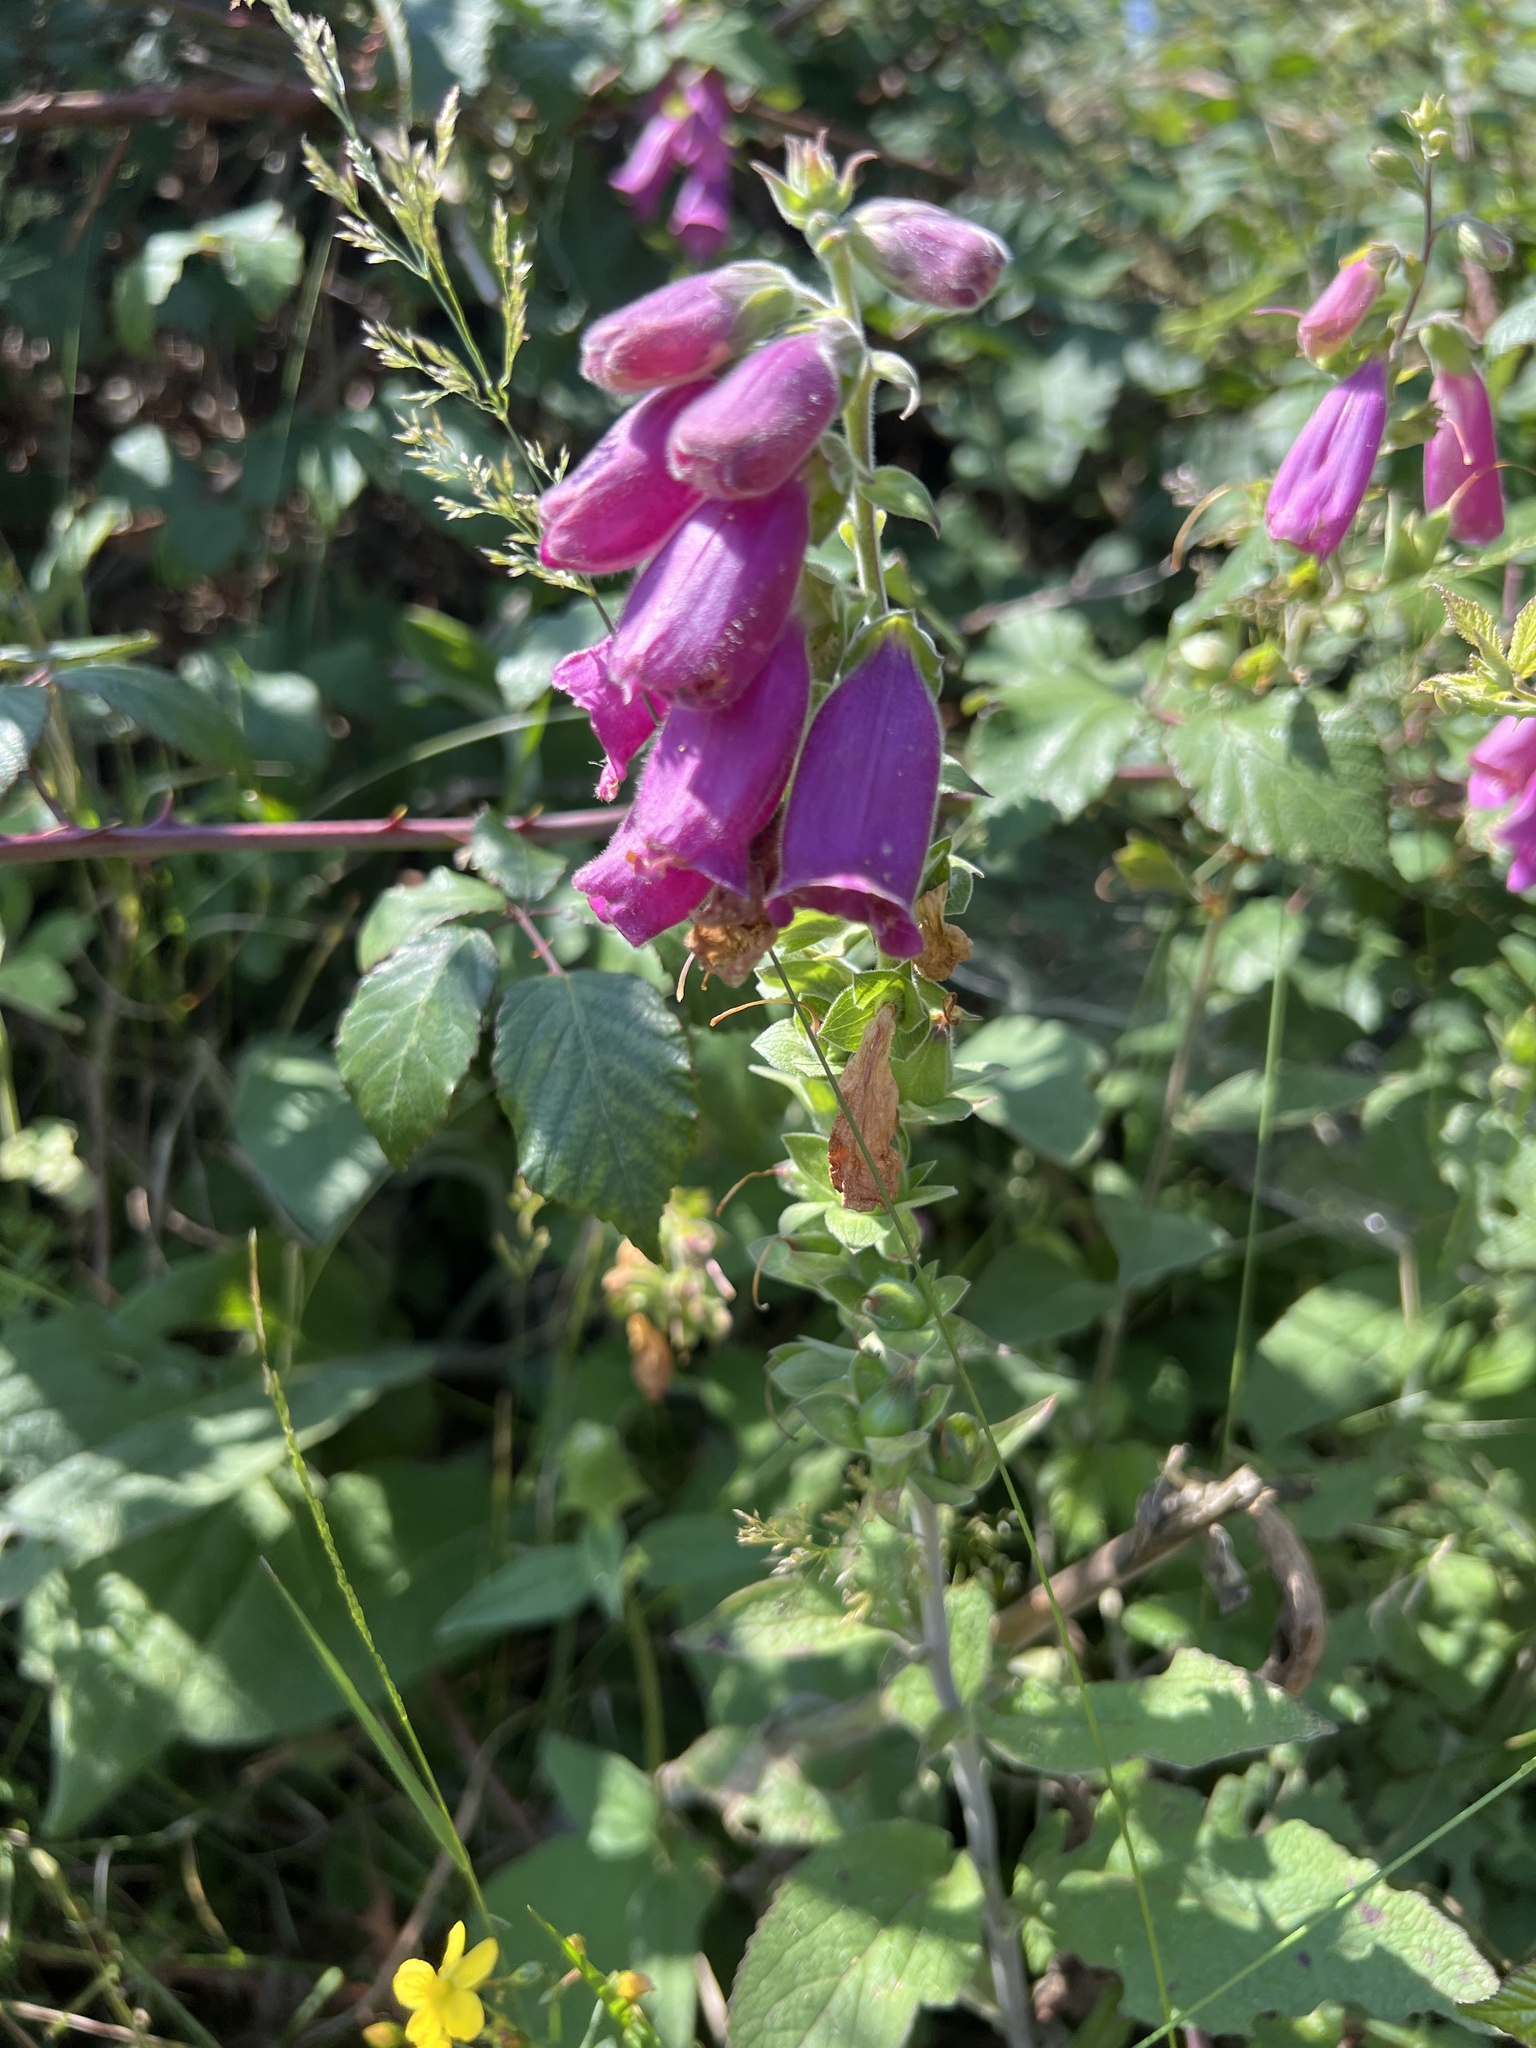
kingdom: Plantae
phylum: Tracheophyta
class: Magnoliopsida
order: Lamiales
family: Plantaginaceae
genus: Digitalis
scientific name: Digitalis purpurea
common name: Foxglove
